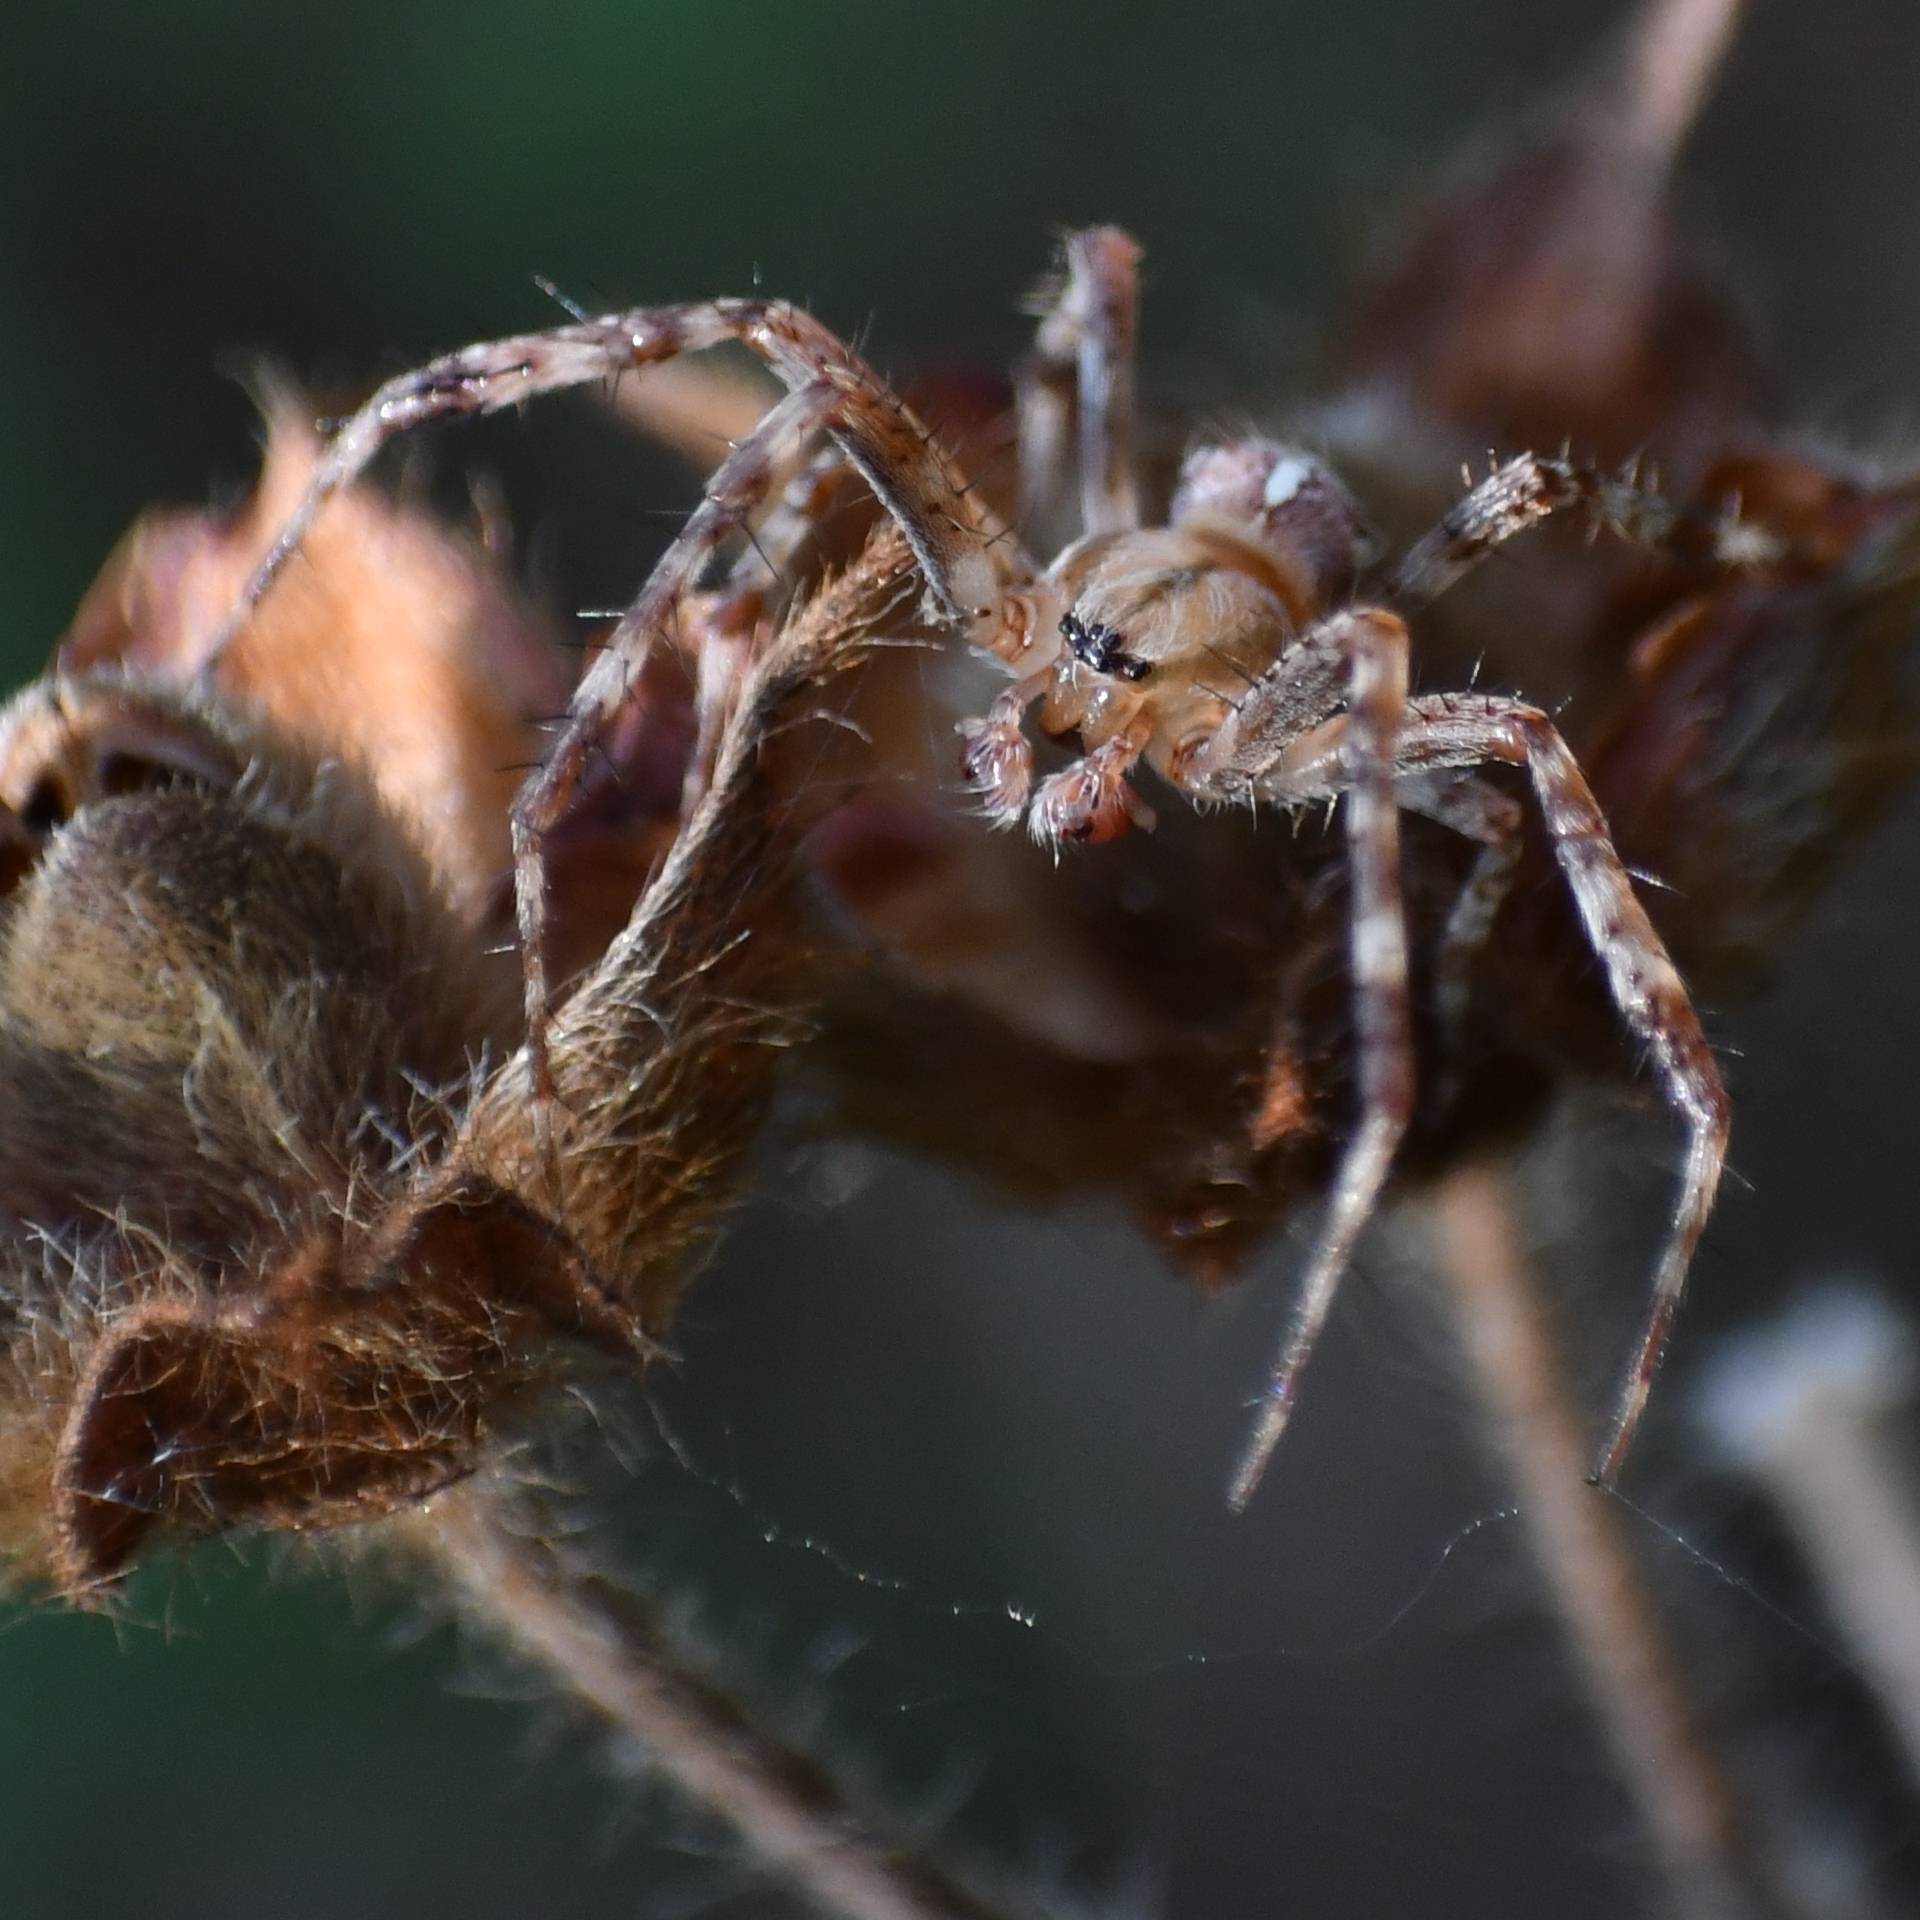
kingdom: Animalia
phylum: Arthropoda
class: Arachnida
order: Araneae
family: Araneidae
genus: Araneus
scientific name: Araneus diadematus
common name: Cross orbweaver
